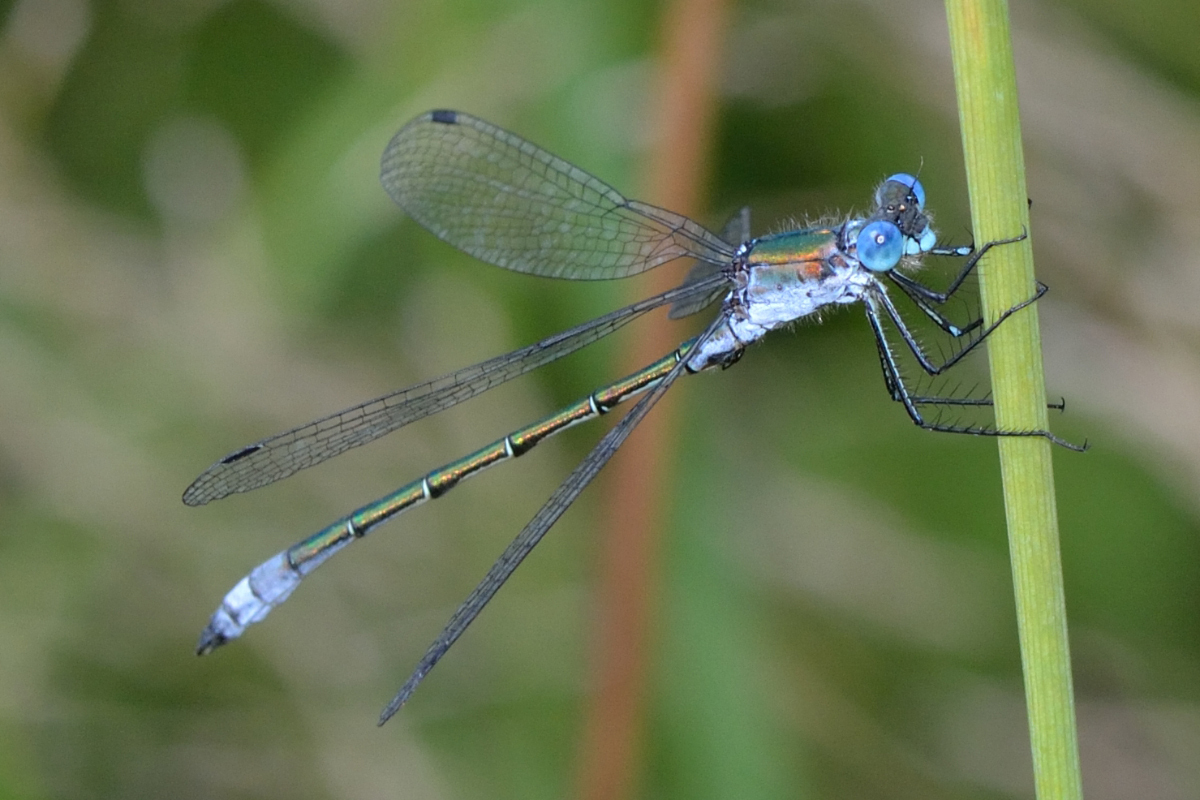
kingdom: Animalia
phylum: Arthropoda
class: Insecta
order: Odonata
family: Lestidae
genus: Lestes
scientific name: Lestes dryas
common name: Scarce emerald damselfly
